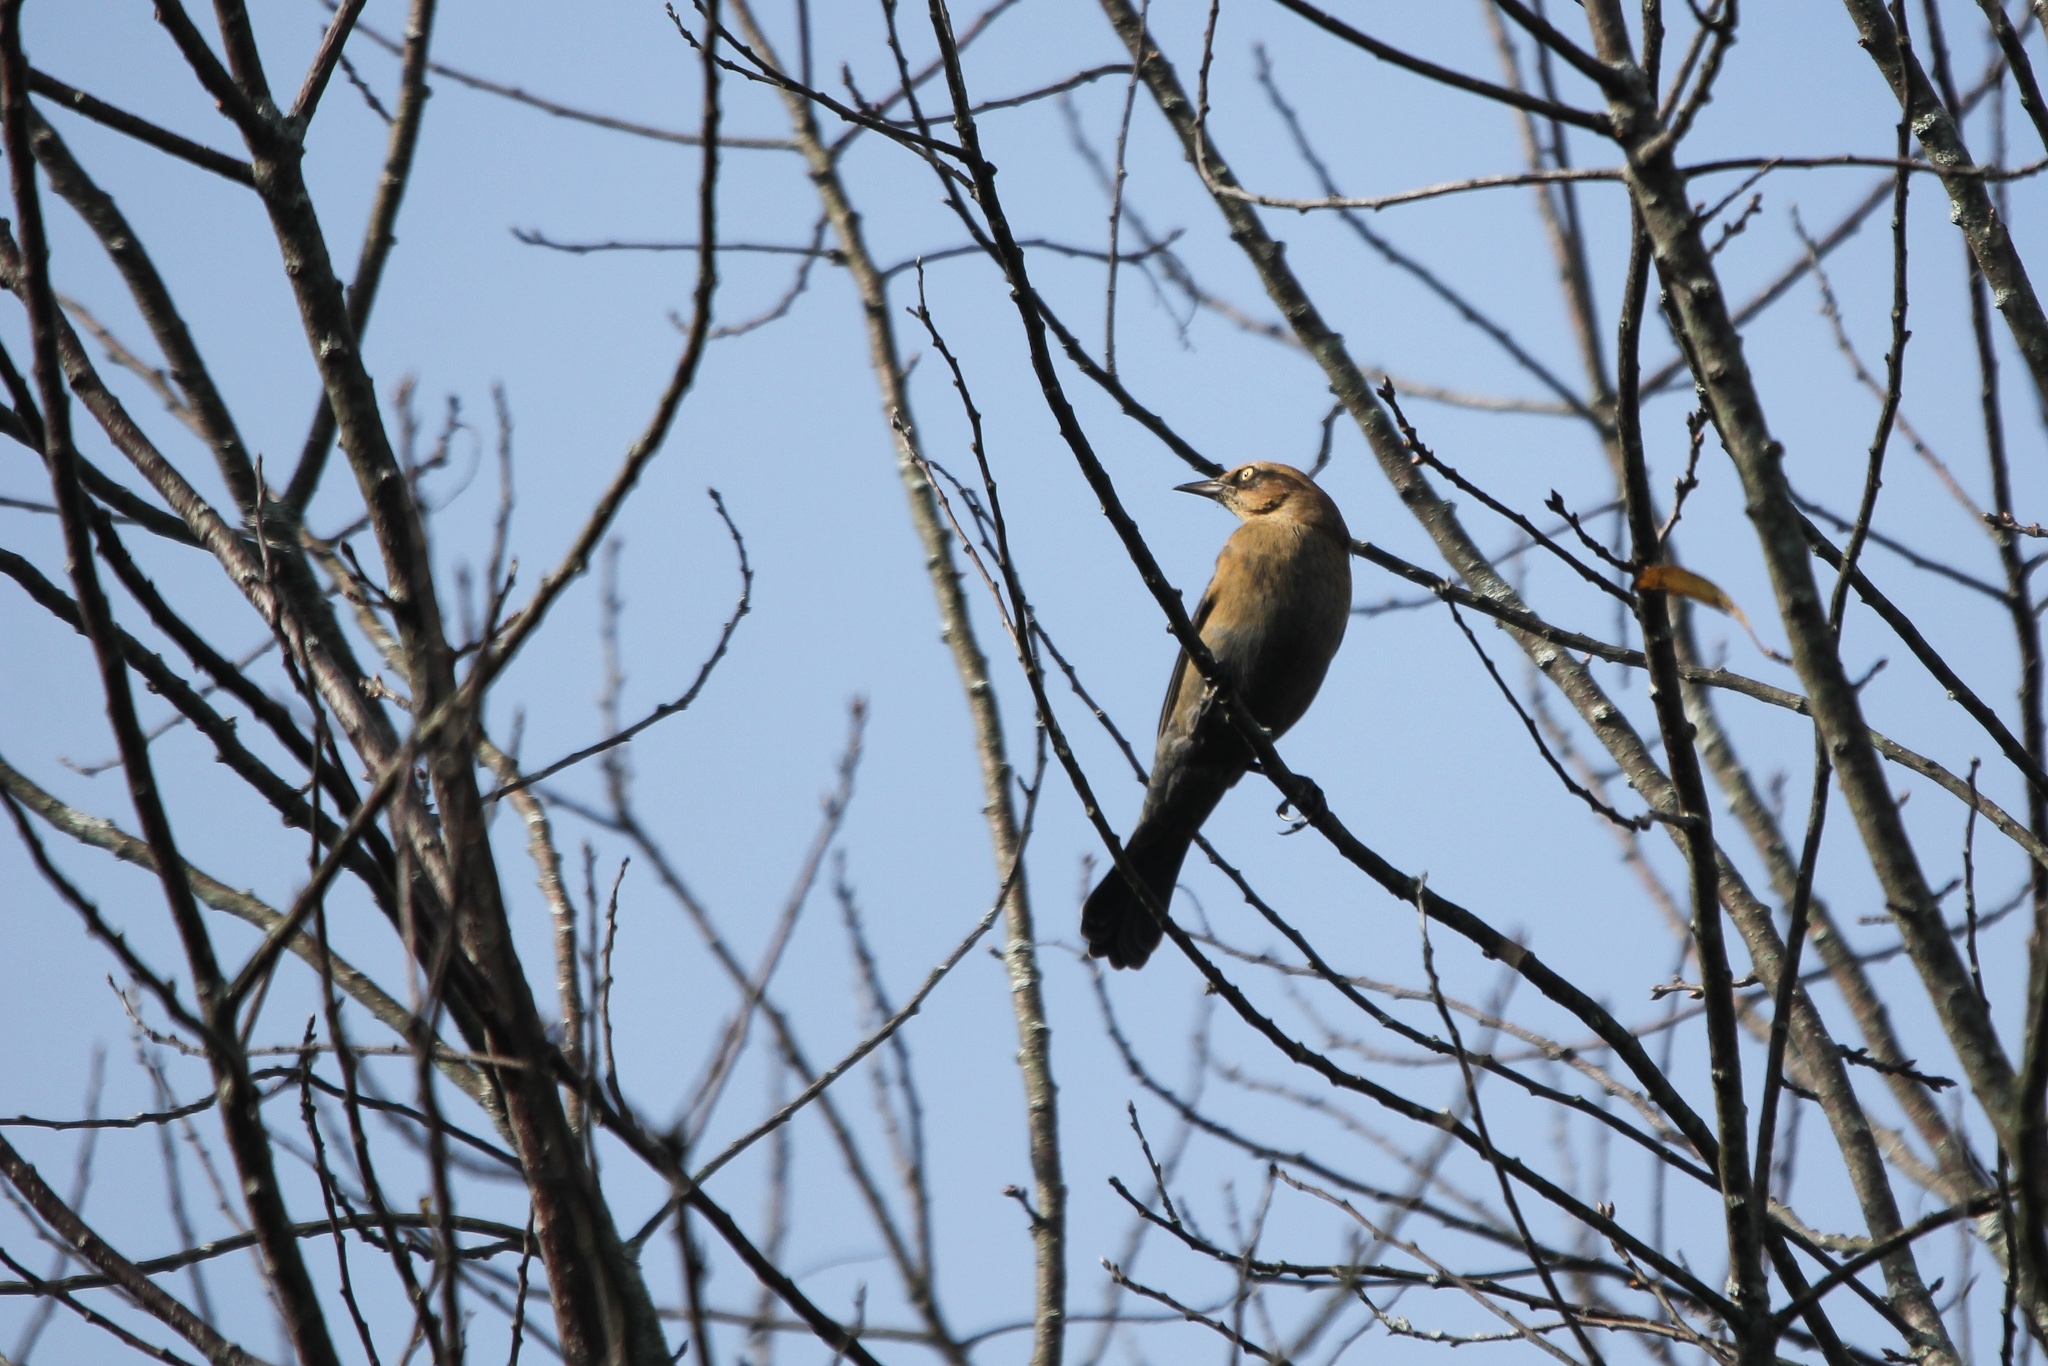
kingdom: Animalia
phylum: Chordata
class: Aves
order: Passeriformes
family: Icteridae
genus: Euphagus
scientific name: Euphagus carolinus
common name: Rusty blackbird
